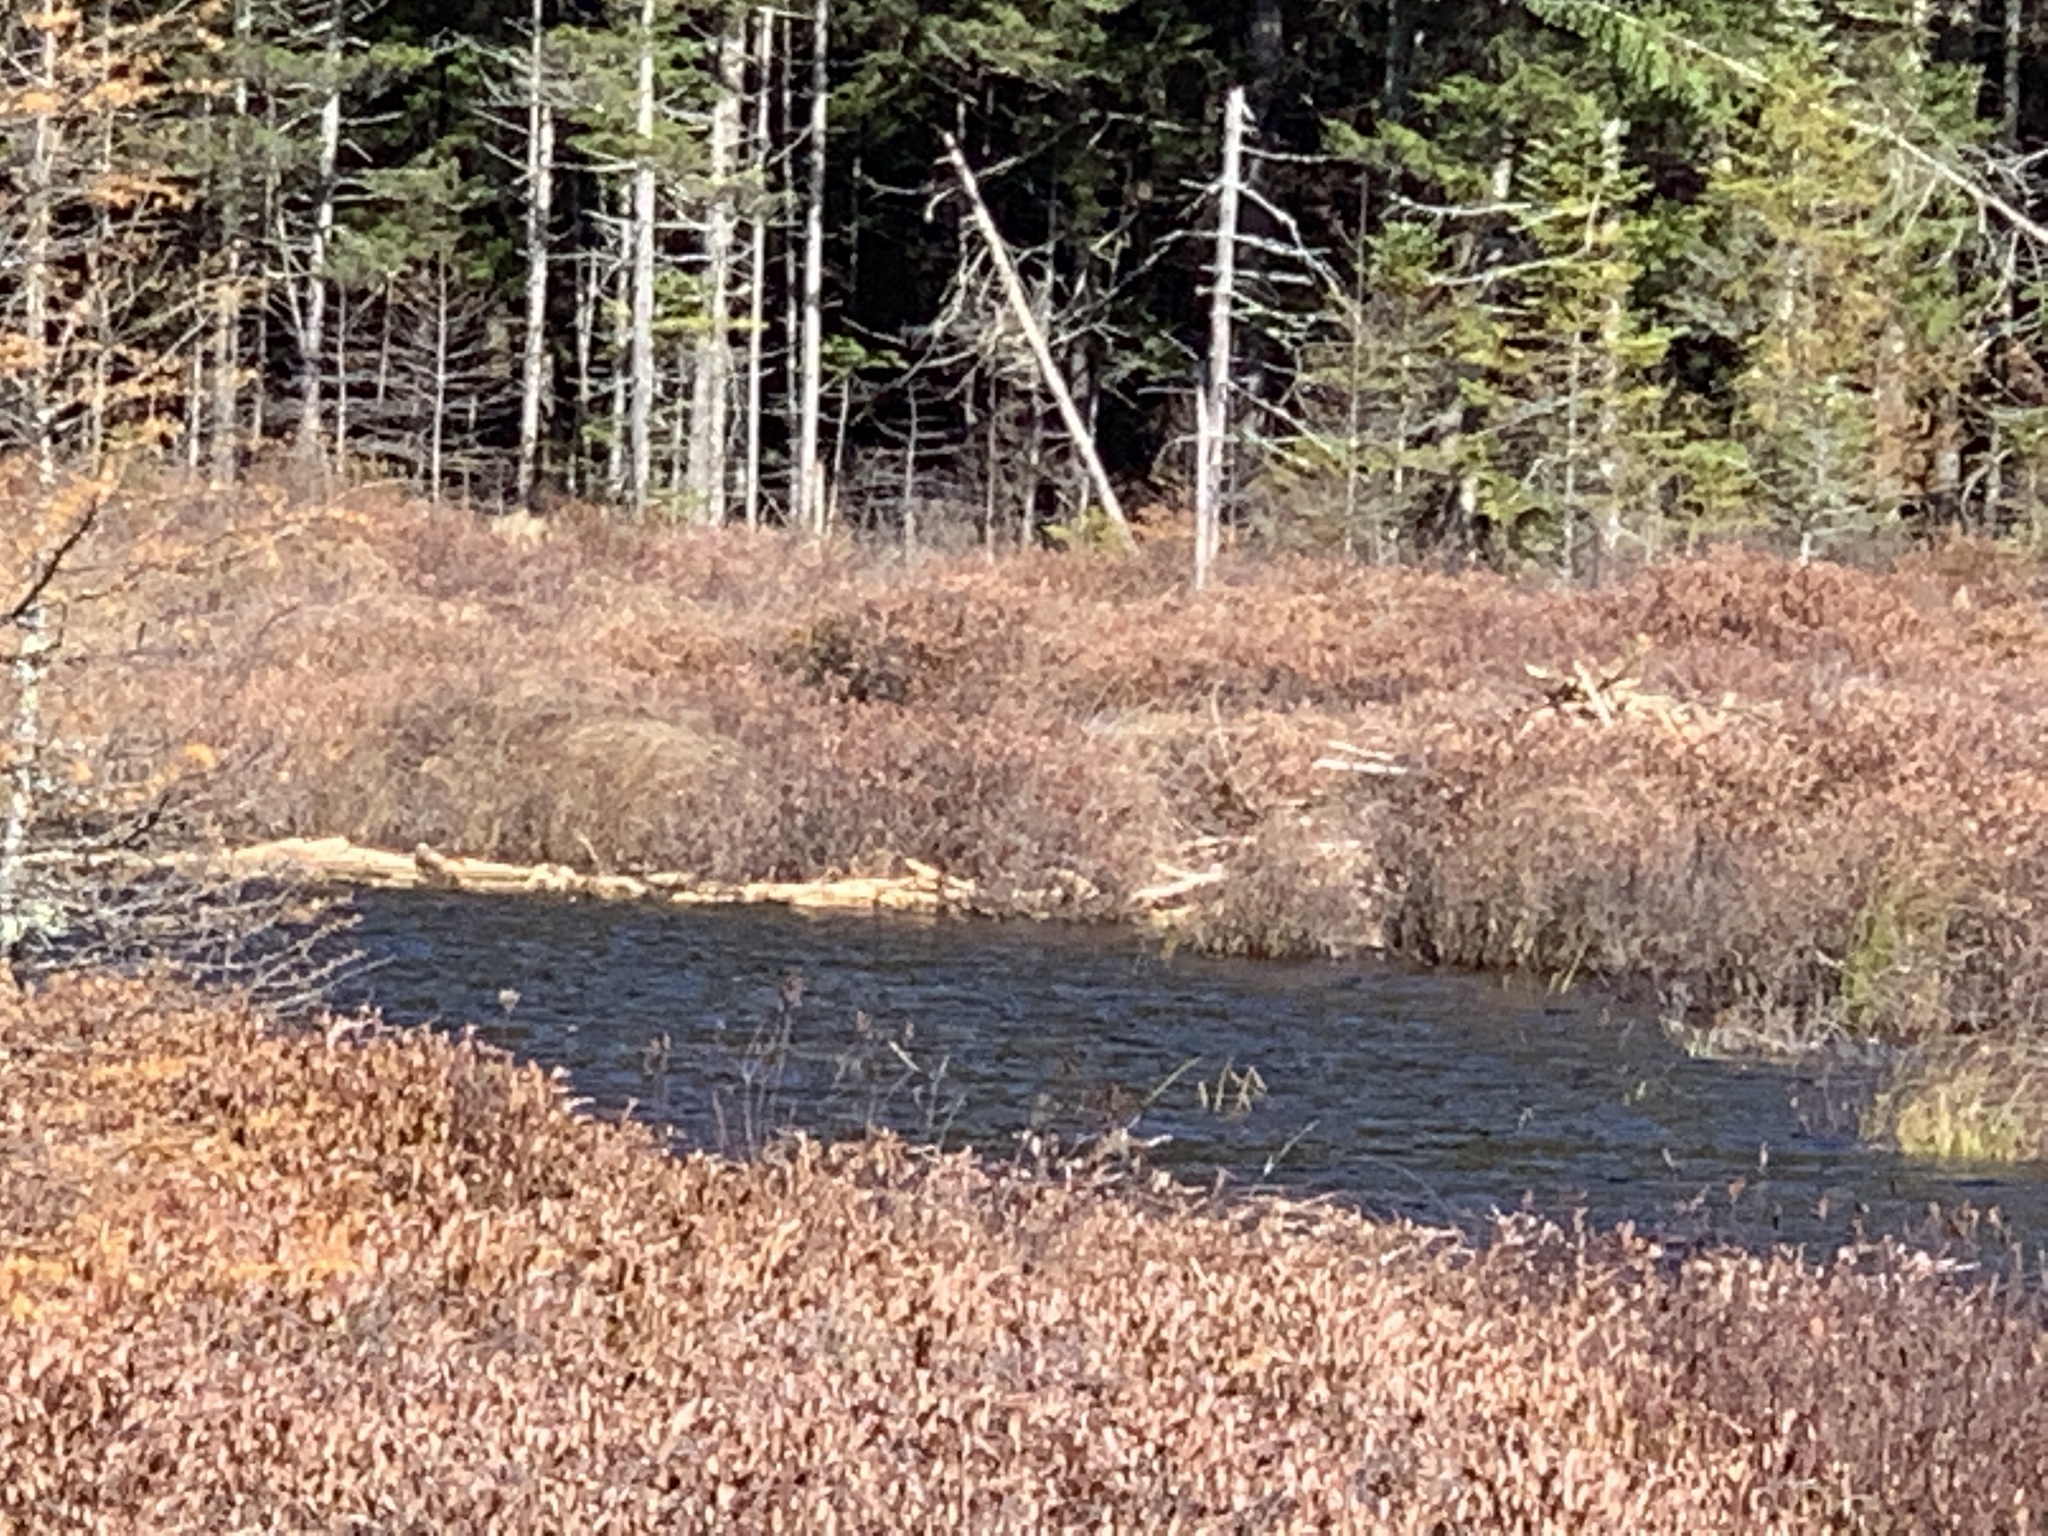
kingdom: Animalia
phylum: Chordata
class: Mammalia
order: Rodentia
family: Castoridae
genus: Castor
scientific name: Castor canadensis
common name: American beaver
